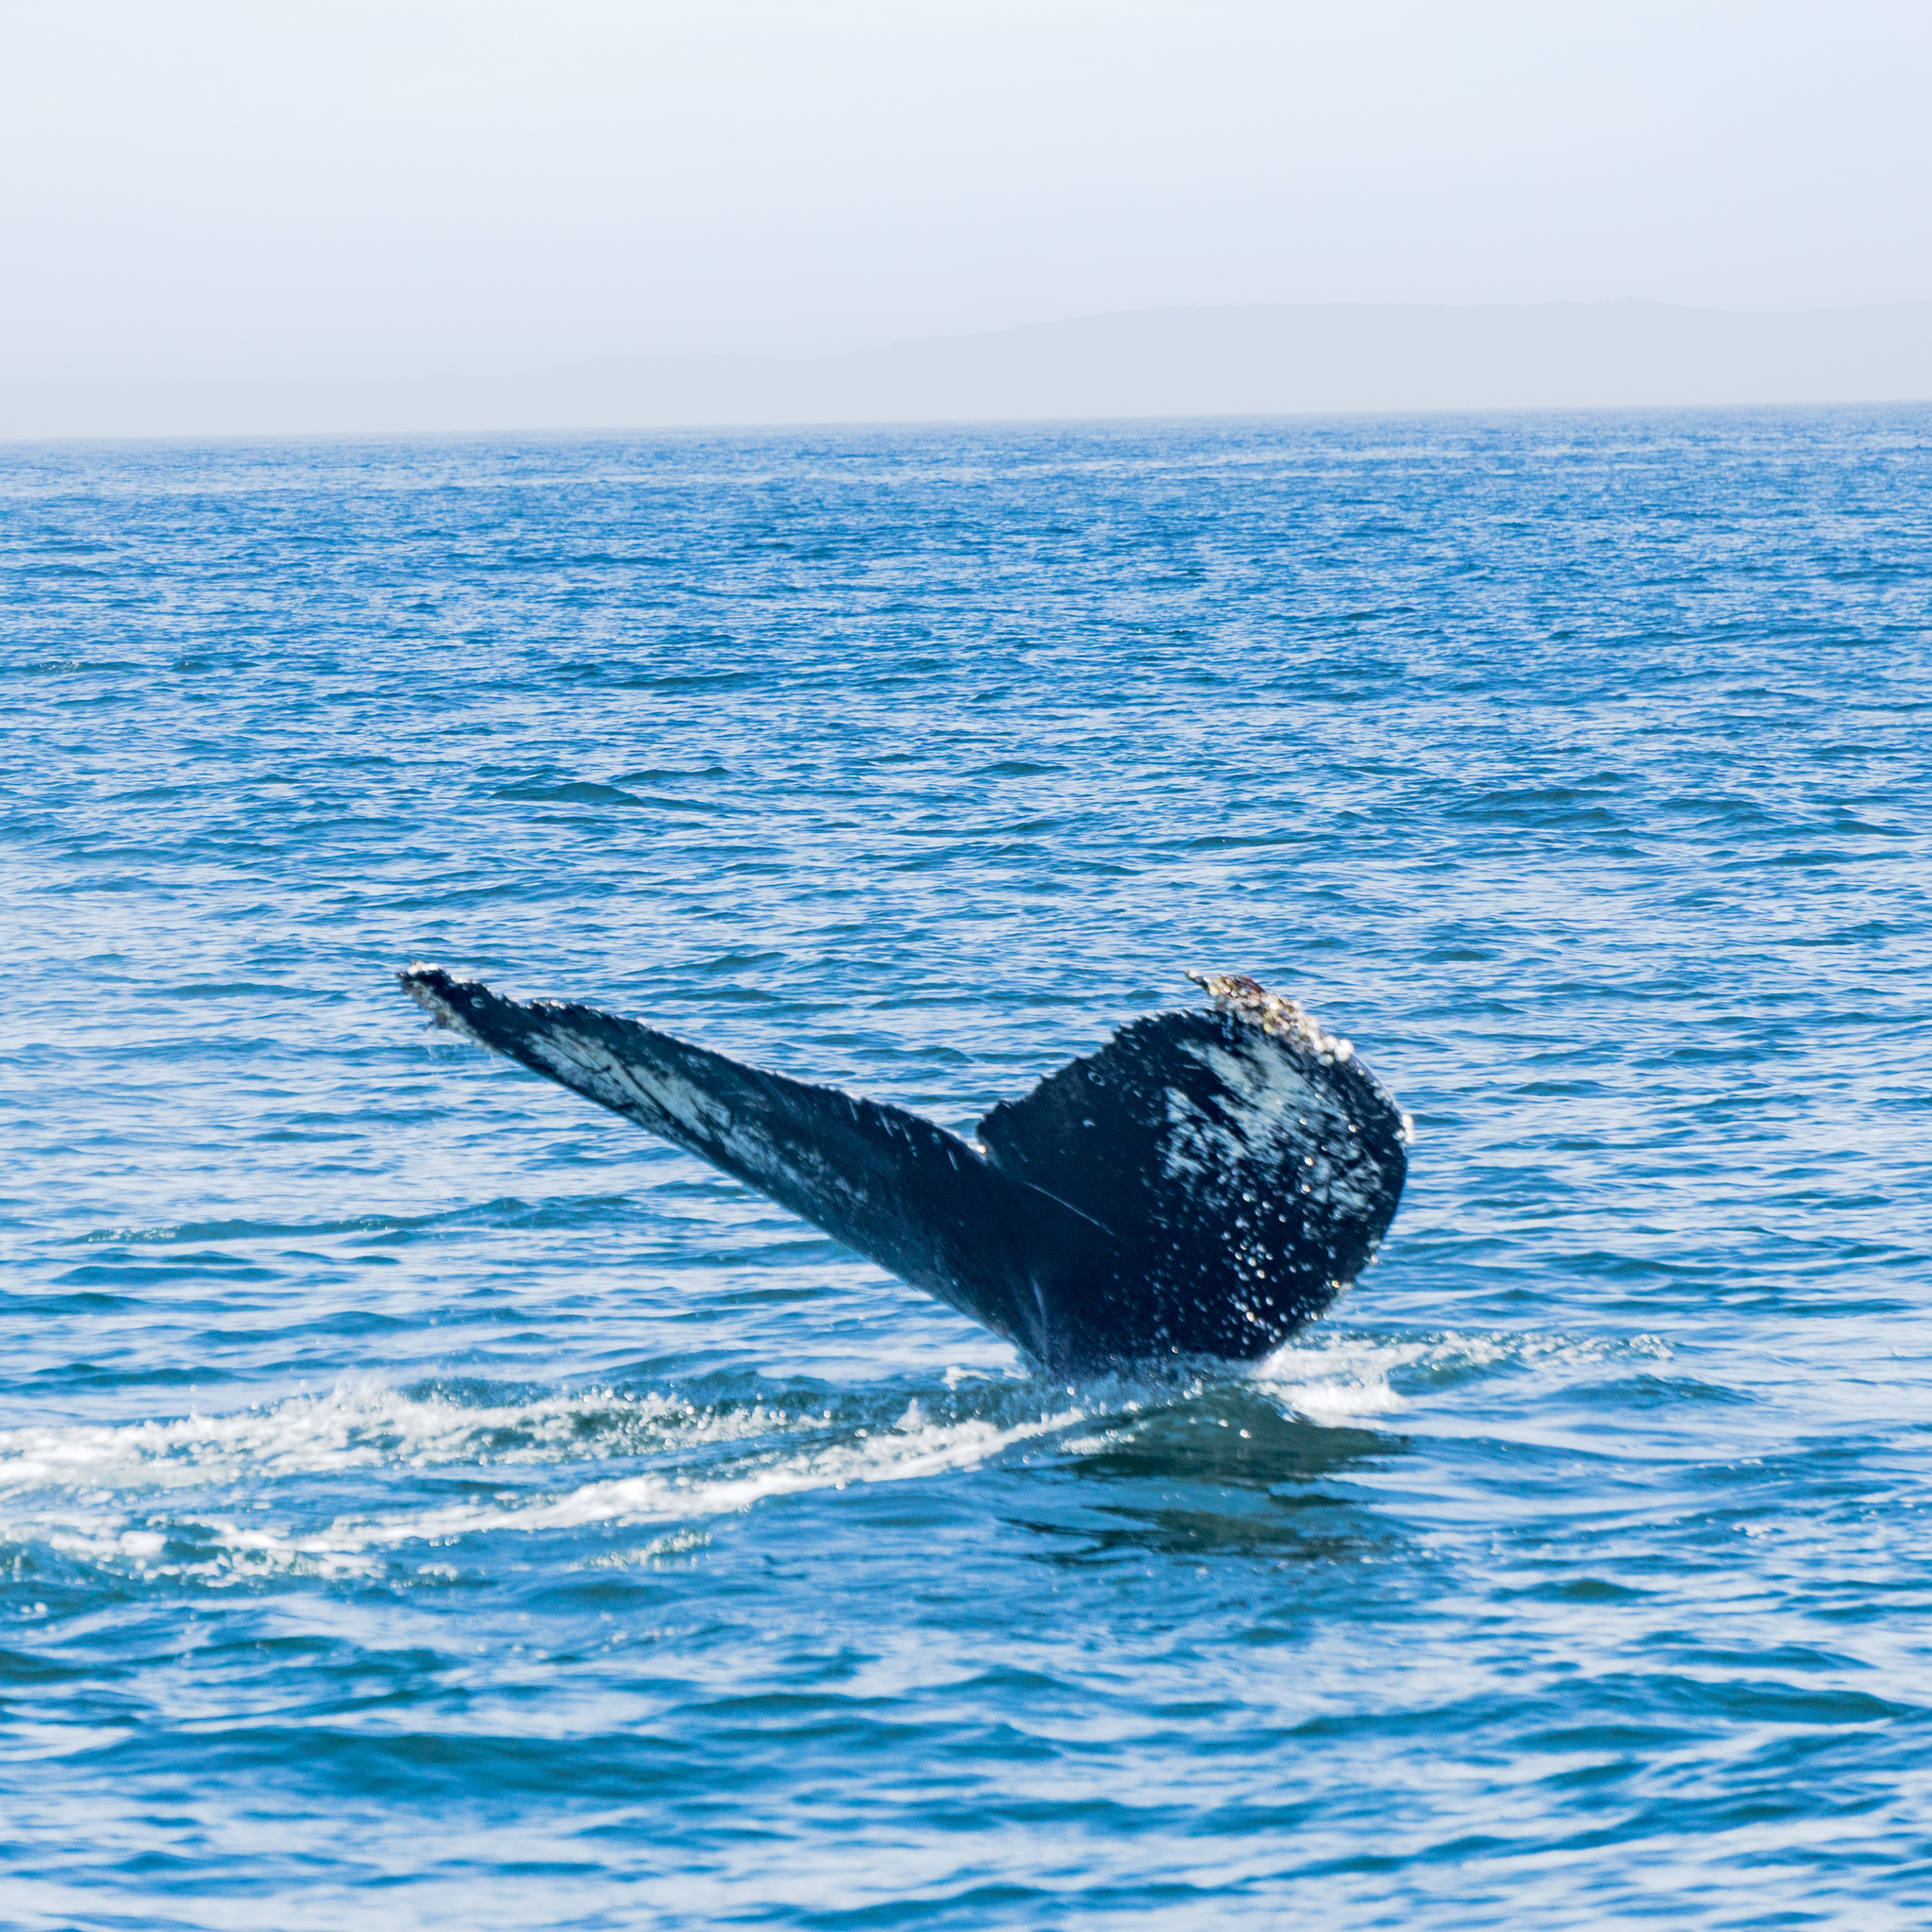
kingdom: Animalia
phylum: Chordata
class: Mammalia
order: Cetacea
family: Balaenopteridae
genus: Megaptera
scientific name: Megaptera novaeangliae
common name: Humpback whale
